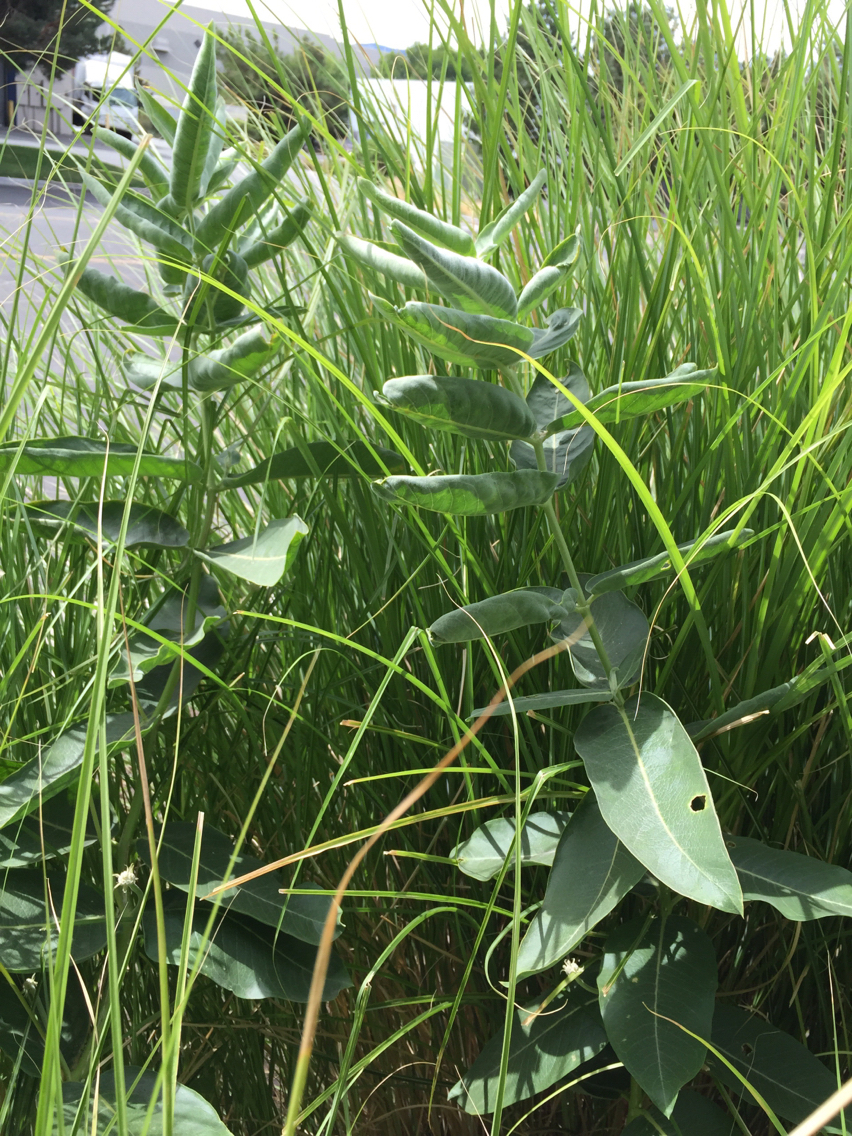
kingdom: Plantae
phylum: Tracheophyta
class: Magnoliopsida
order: Gentianales
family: Apocynaceae
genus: Asclepias
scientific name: Asclepias speciosa
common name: Showy milkweed
